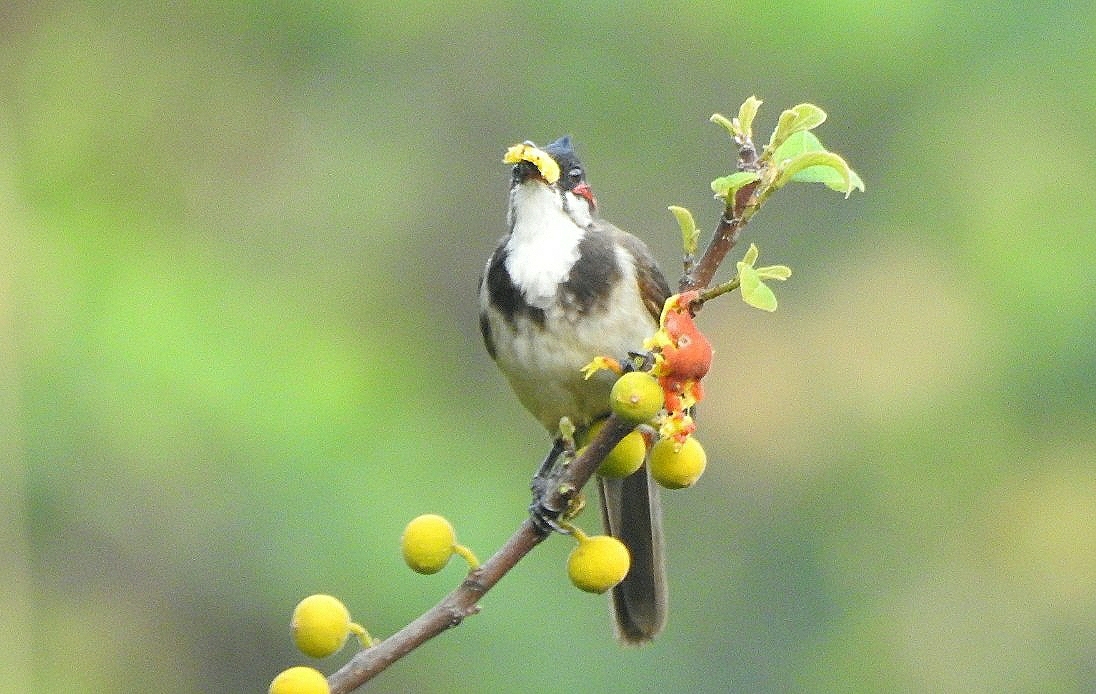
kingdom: Animalia
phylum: Chordata
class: Aves
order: Passeriformes
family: Pycnonotidae
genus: Pycnonotus
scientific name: Pycnonotus jocosus
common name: Red-whiskered bulbul
